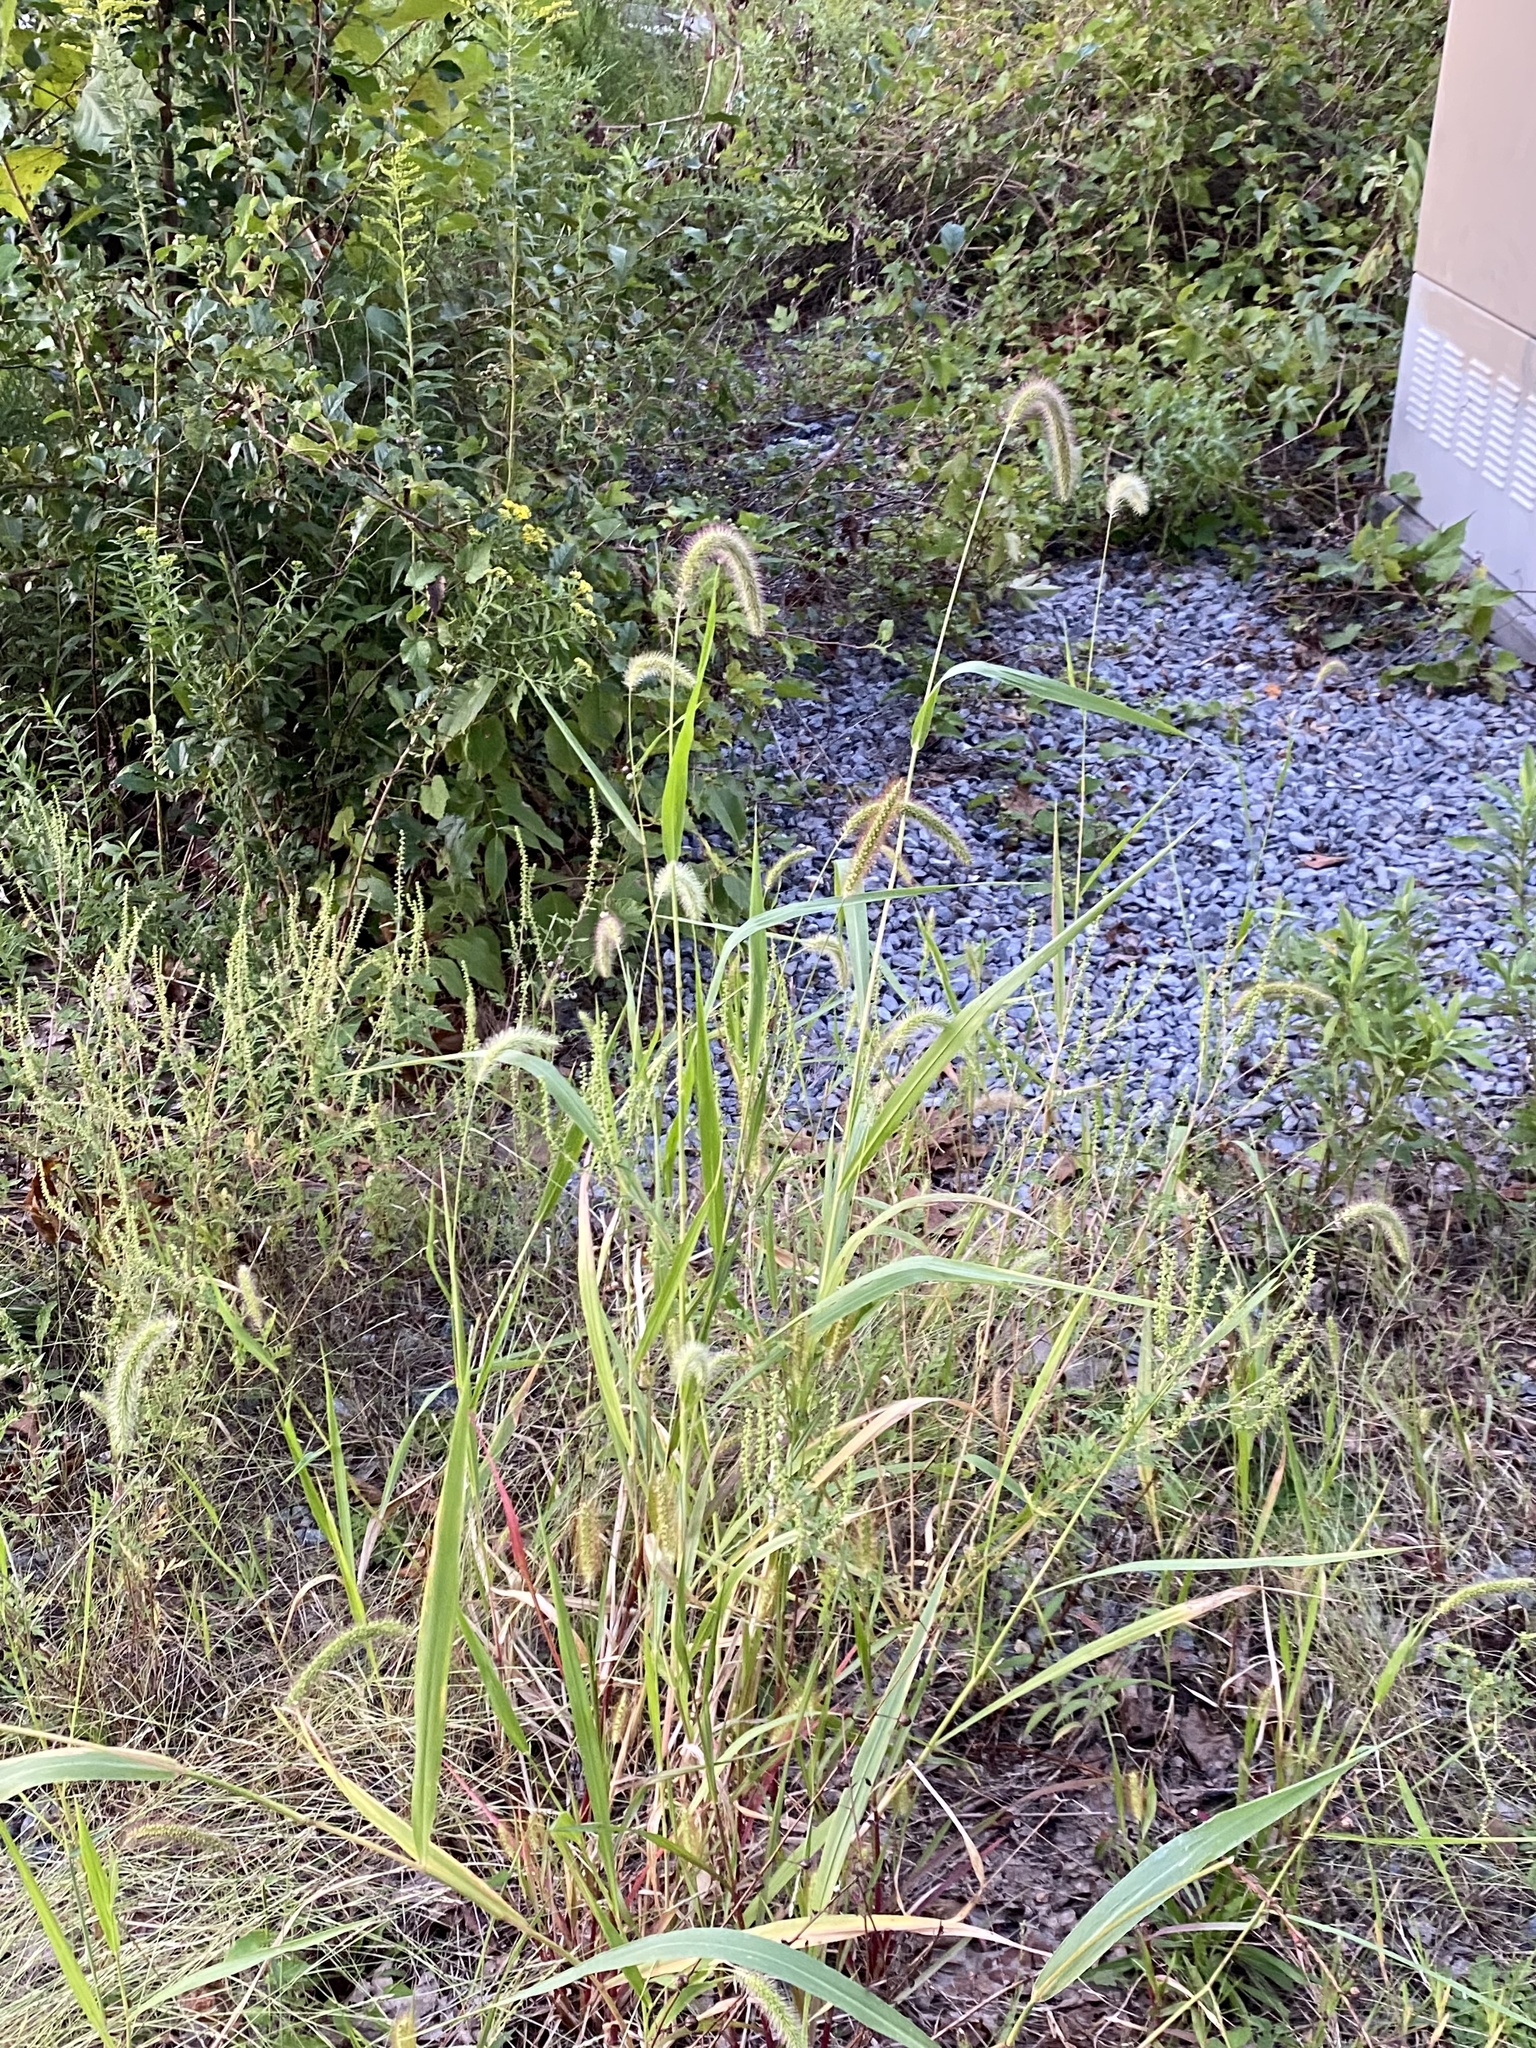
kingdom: Plantae
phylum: Tracheophyta
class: Liliopsida
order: Poales
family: Poaceae
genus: Setaria
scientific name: Setaria faberi
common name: Nodding bristle-grass
